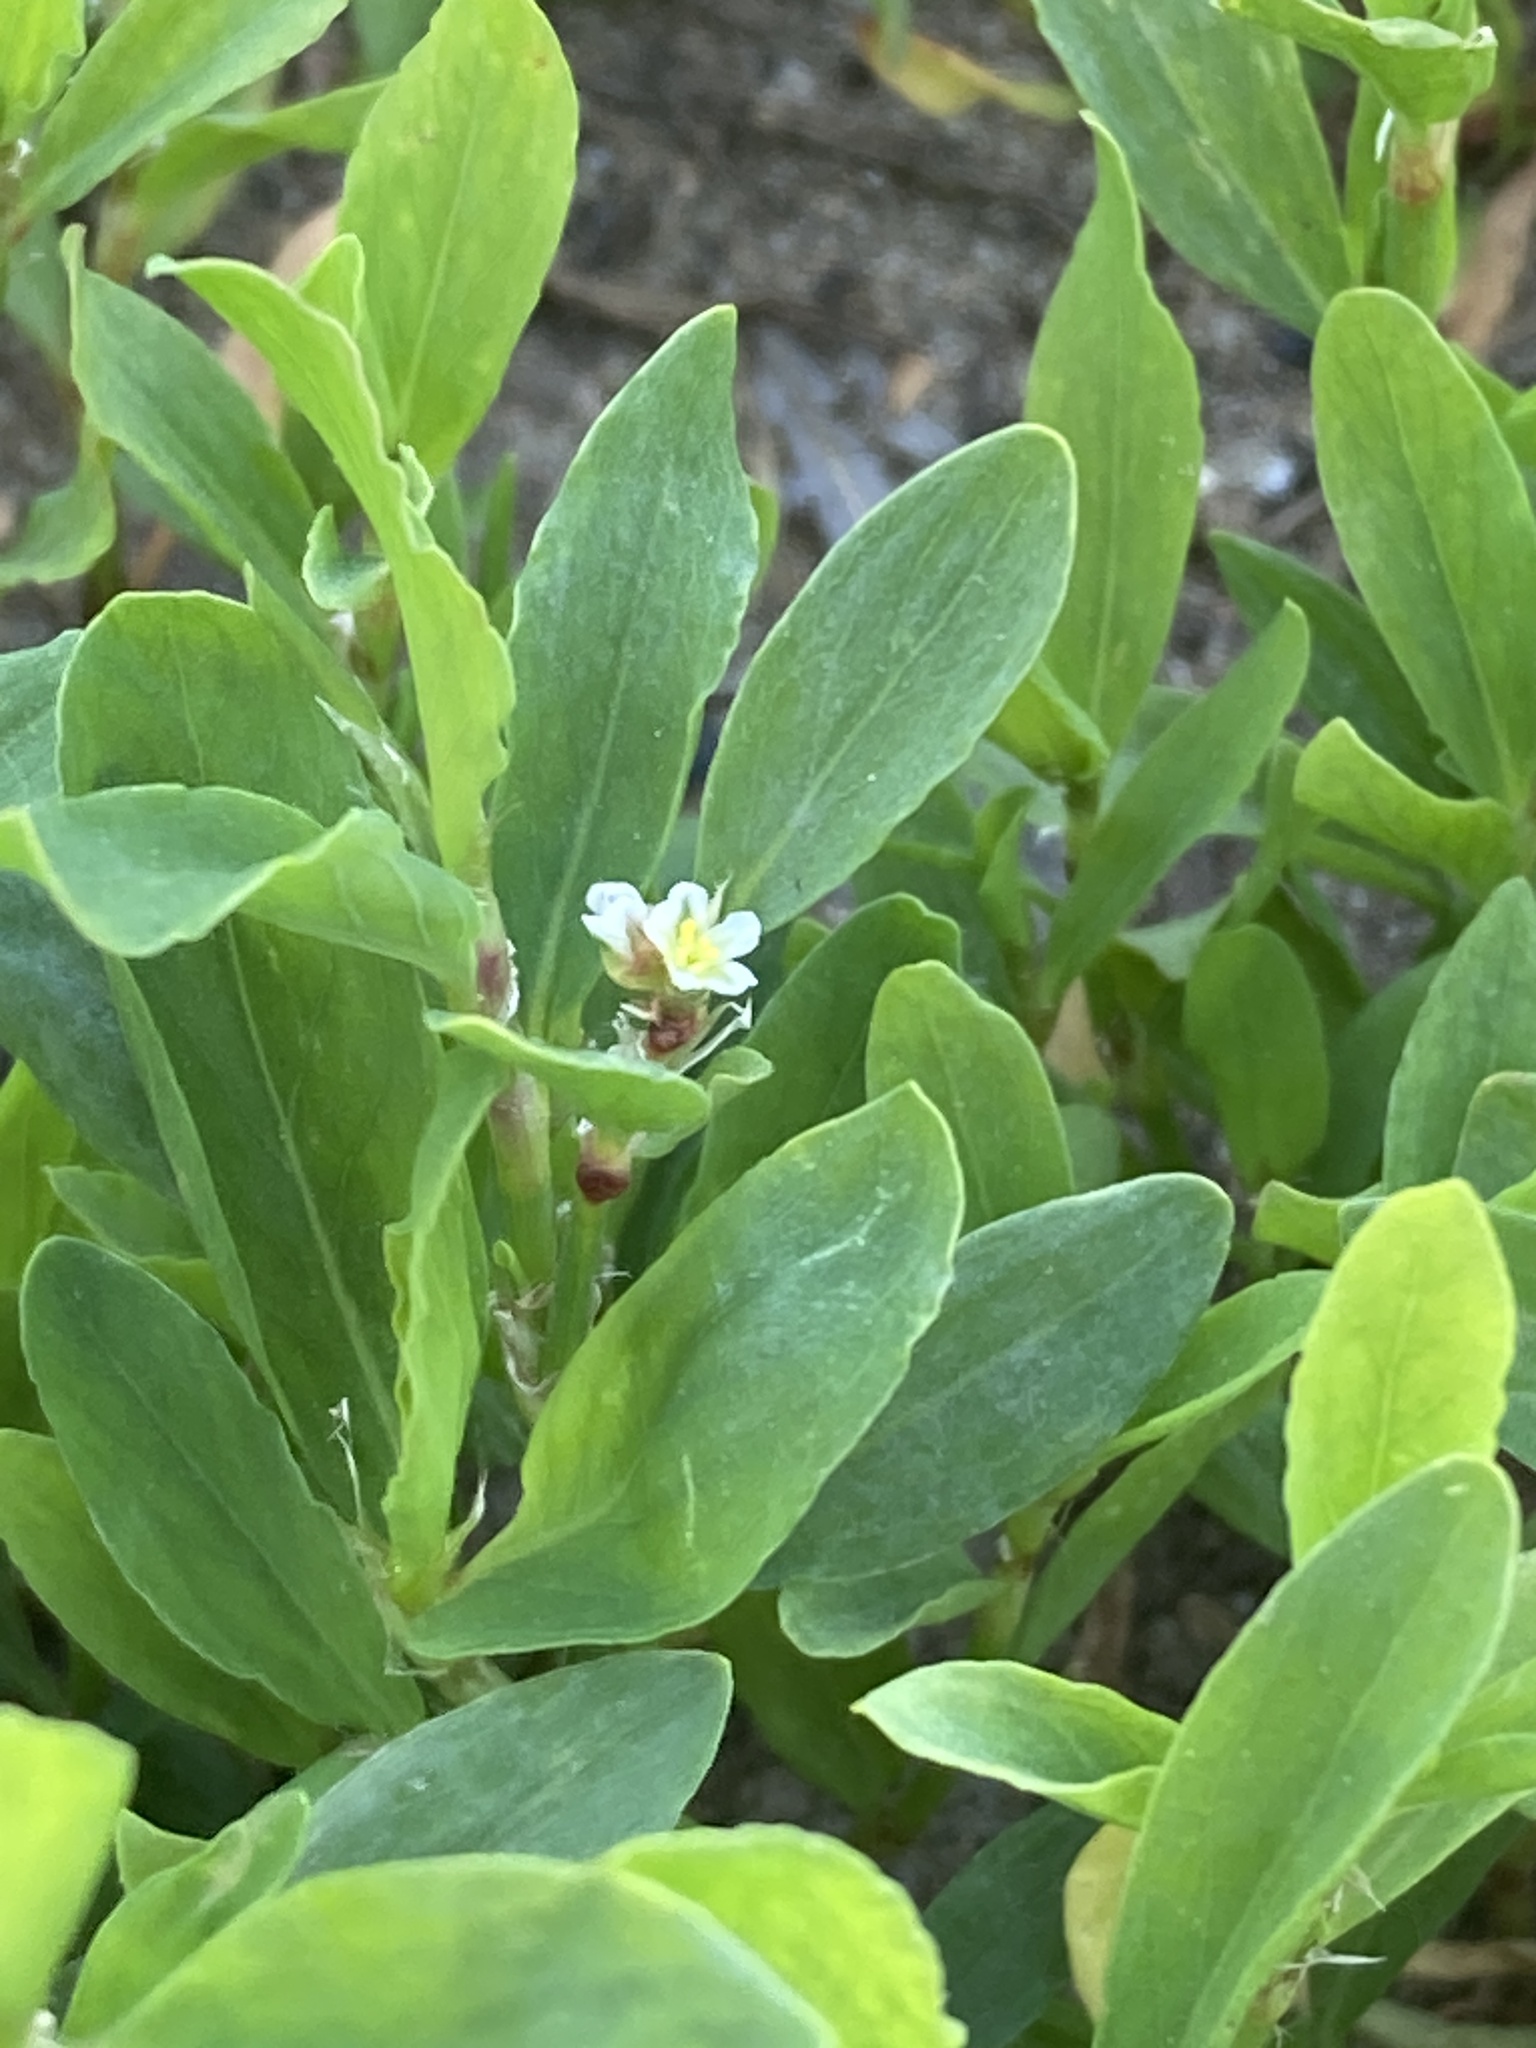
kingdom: Plantae
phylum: Tracheophyta
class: Magnoliopsida
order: Caryophyllales
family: Polygonaceae
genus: Polygonum
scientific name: Polygonum
